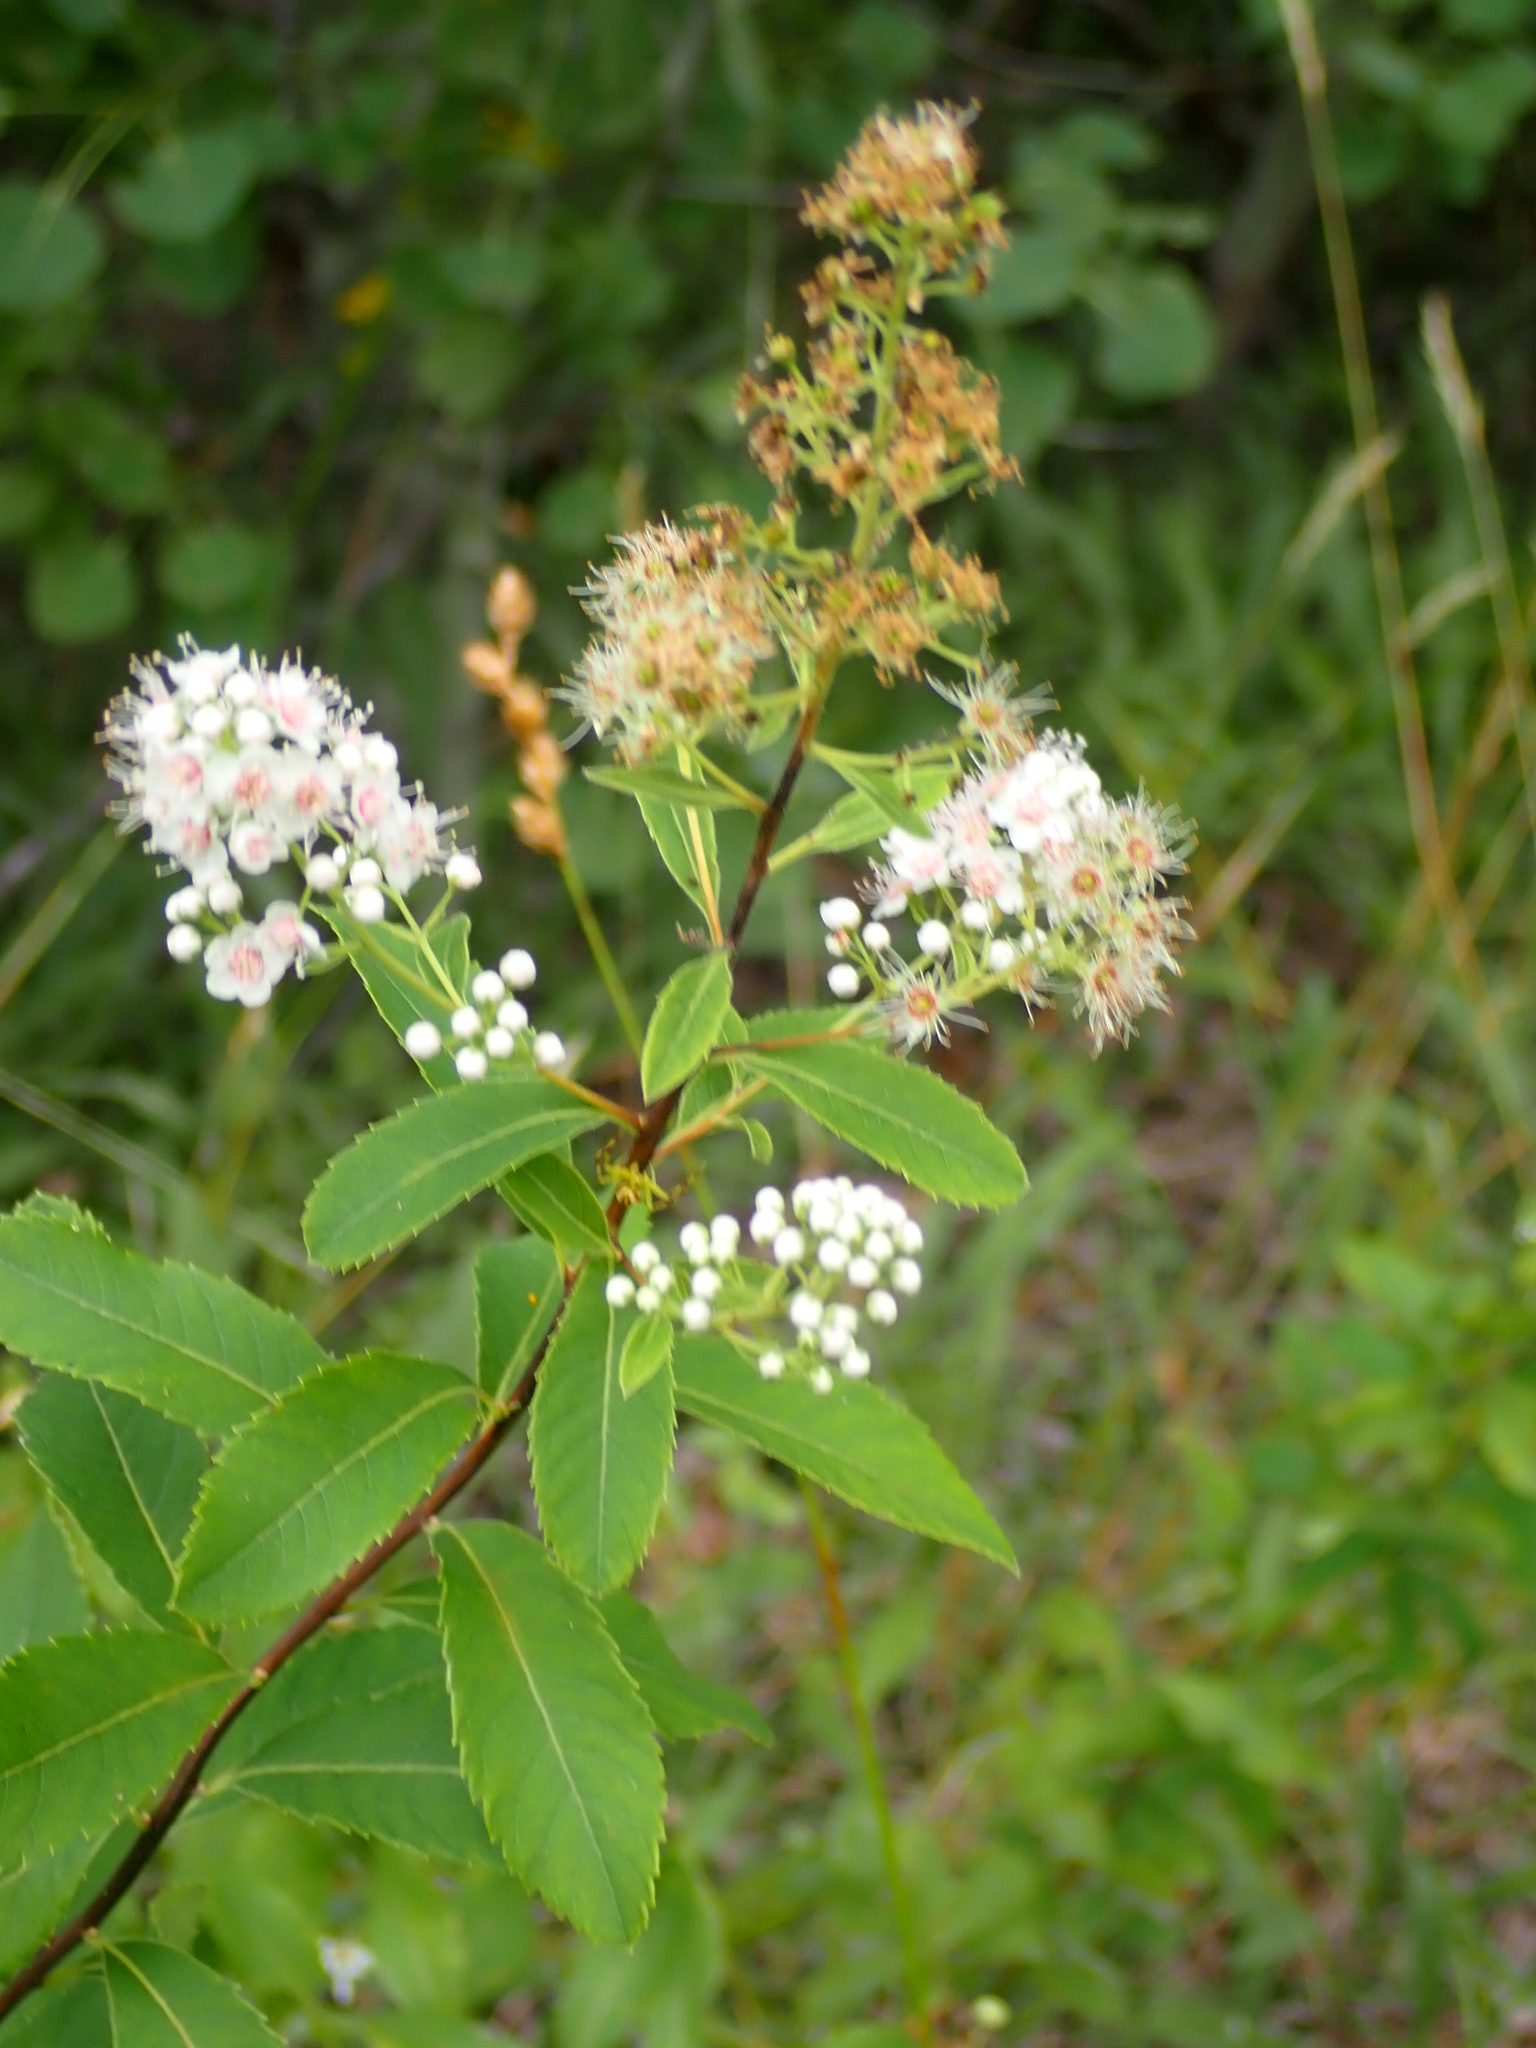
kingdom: Plantae
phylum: Tracheophyta
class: Magnoliopsida
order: Rosales
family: Rosaceae
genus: Spiraea
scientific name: Spiraea alba
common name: Pale bridewort
